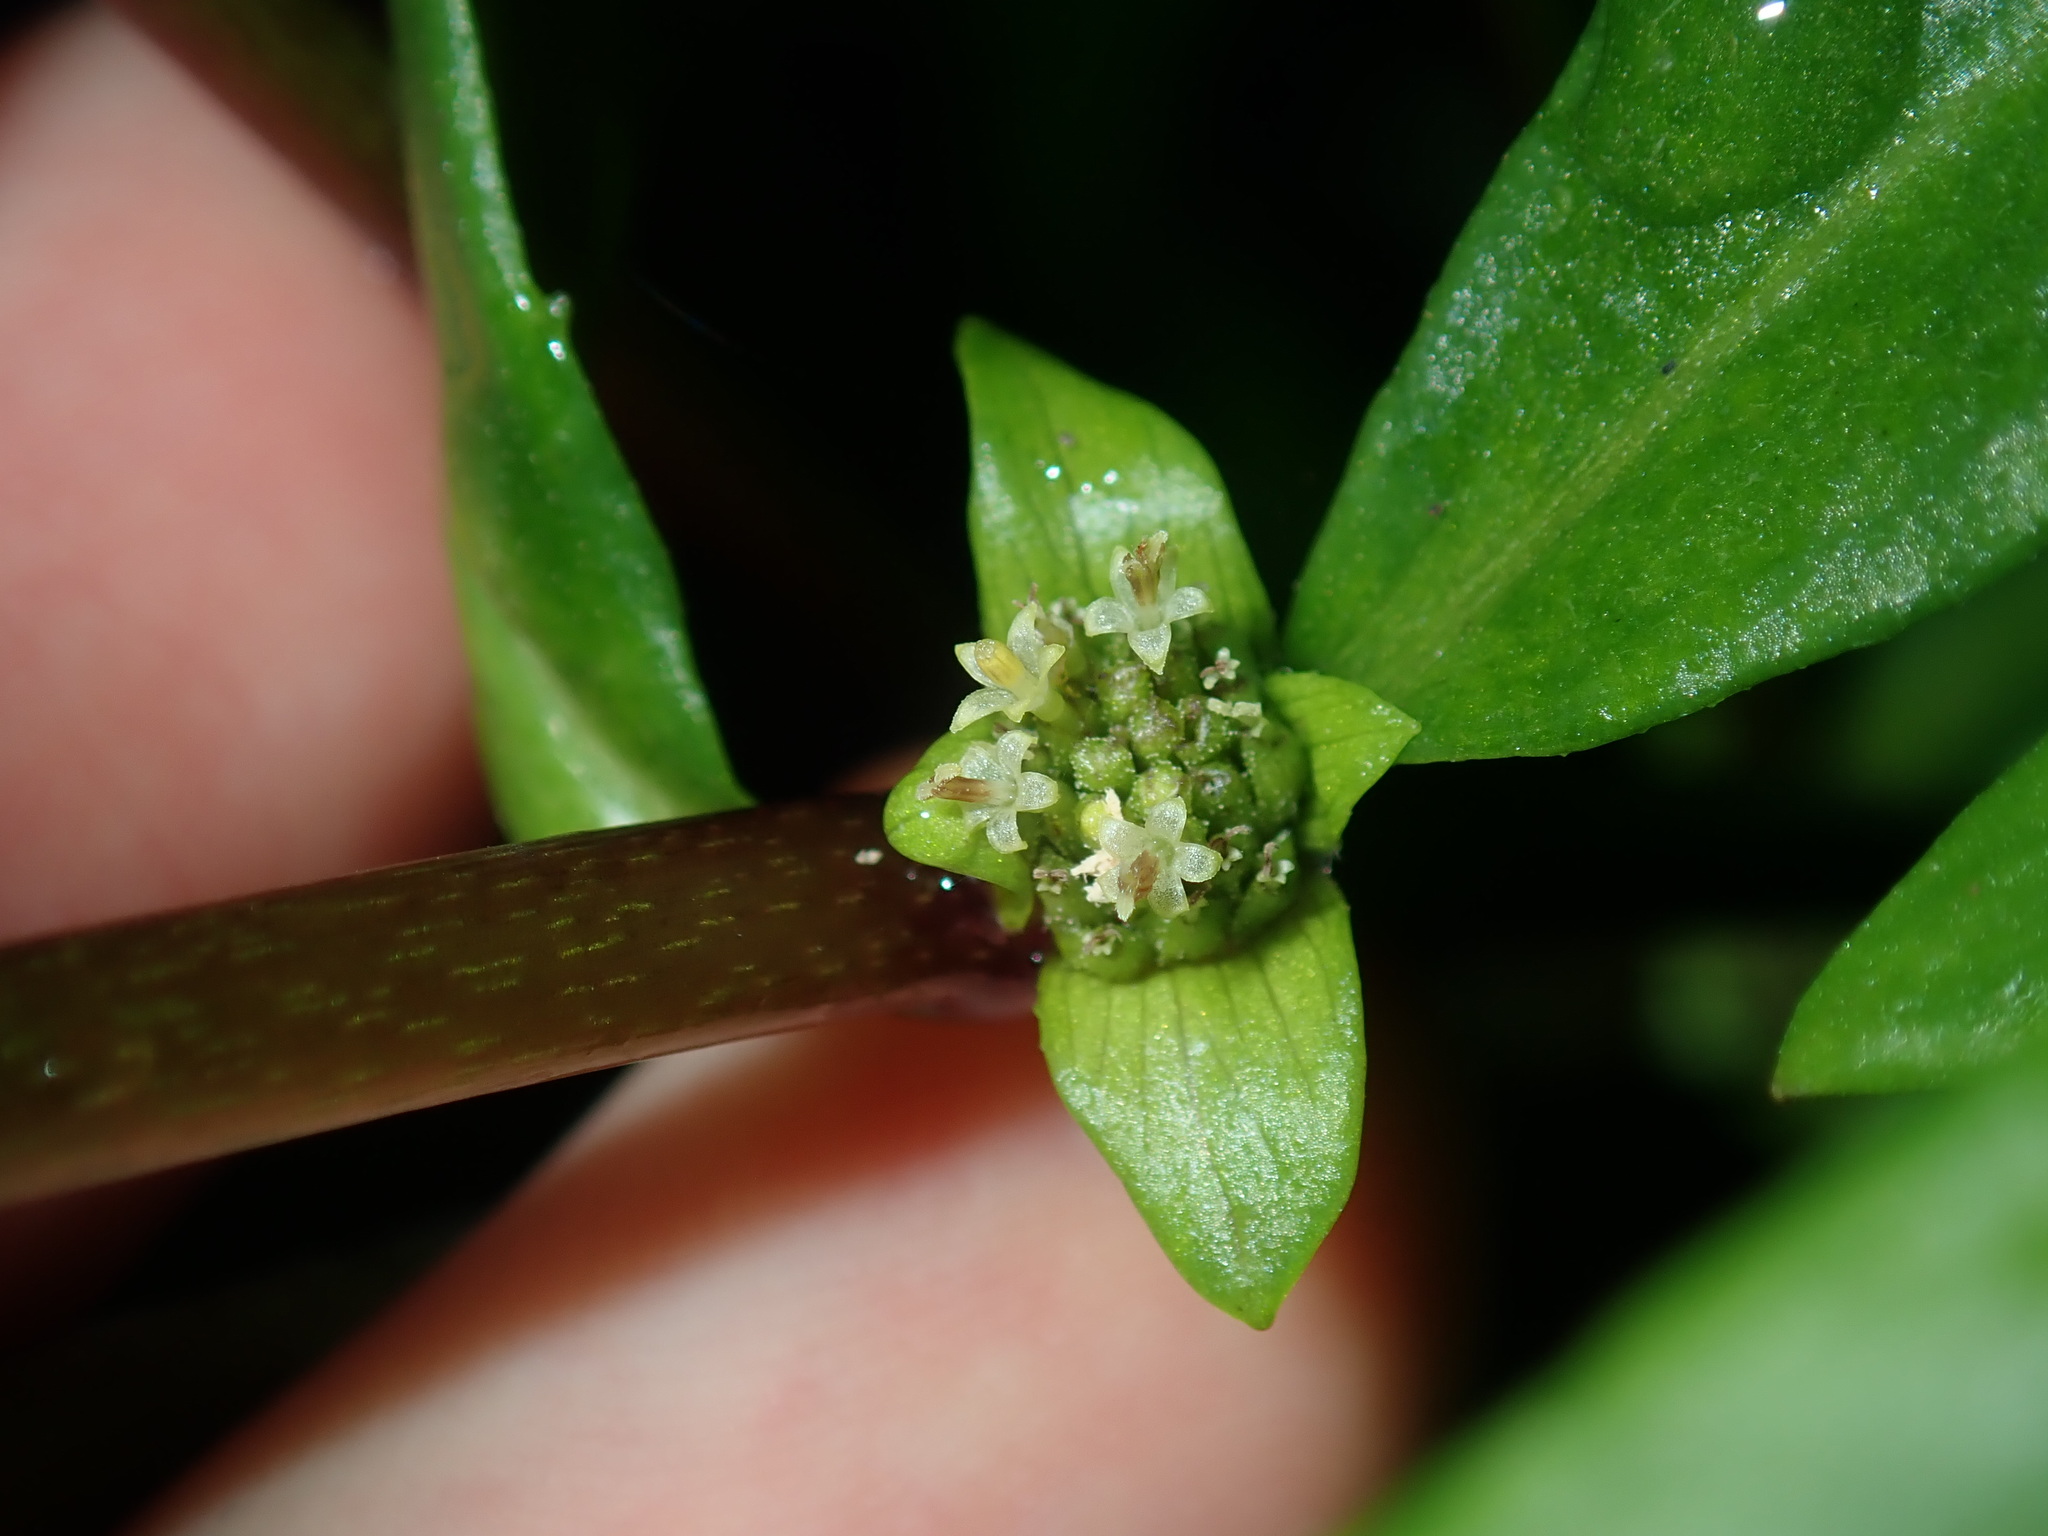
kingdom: Plantae
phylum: Tracheophyta
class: Magnoliopsida
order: Asterales
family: Asteraceae
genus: Enydra
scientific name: Enydra fluctuans
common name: Buffalo spinach
